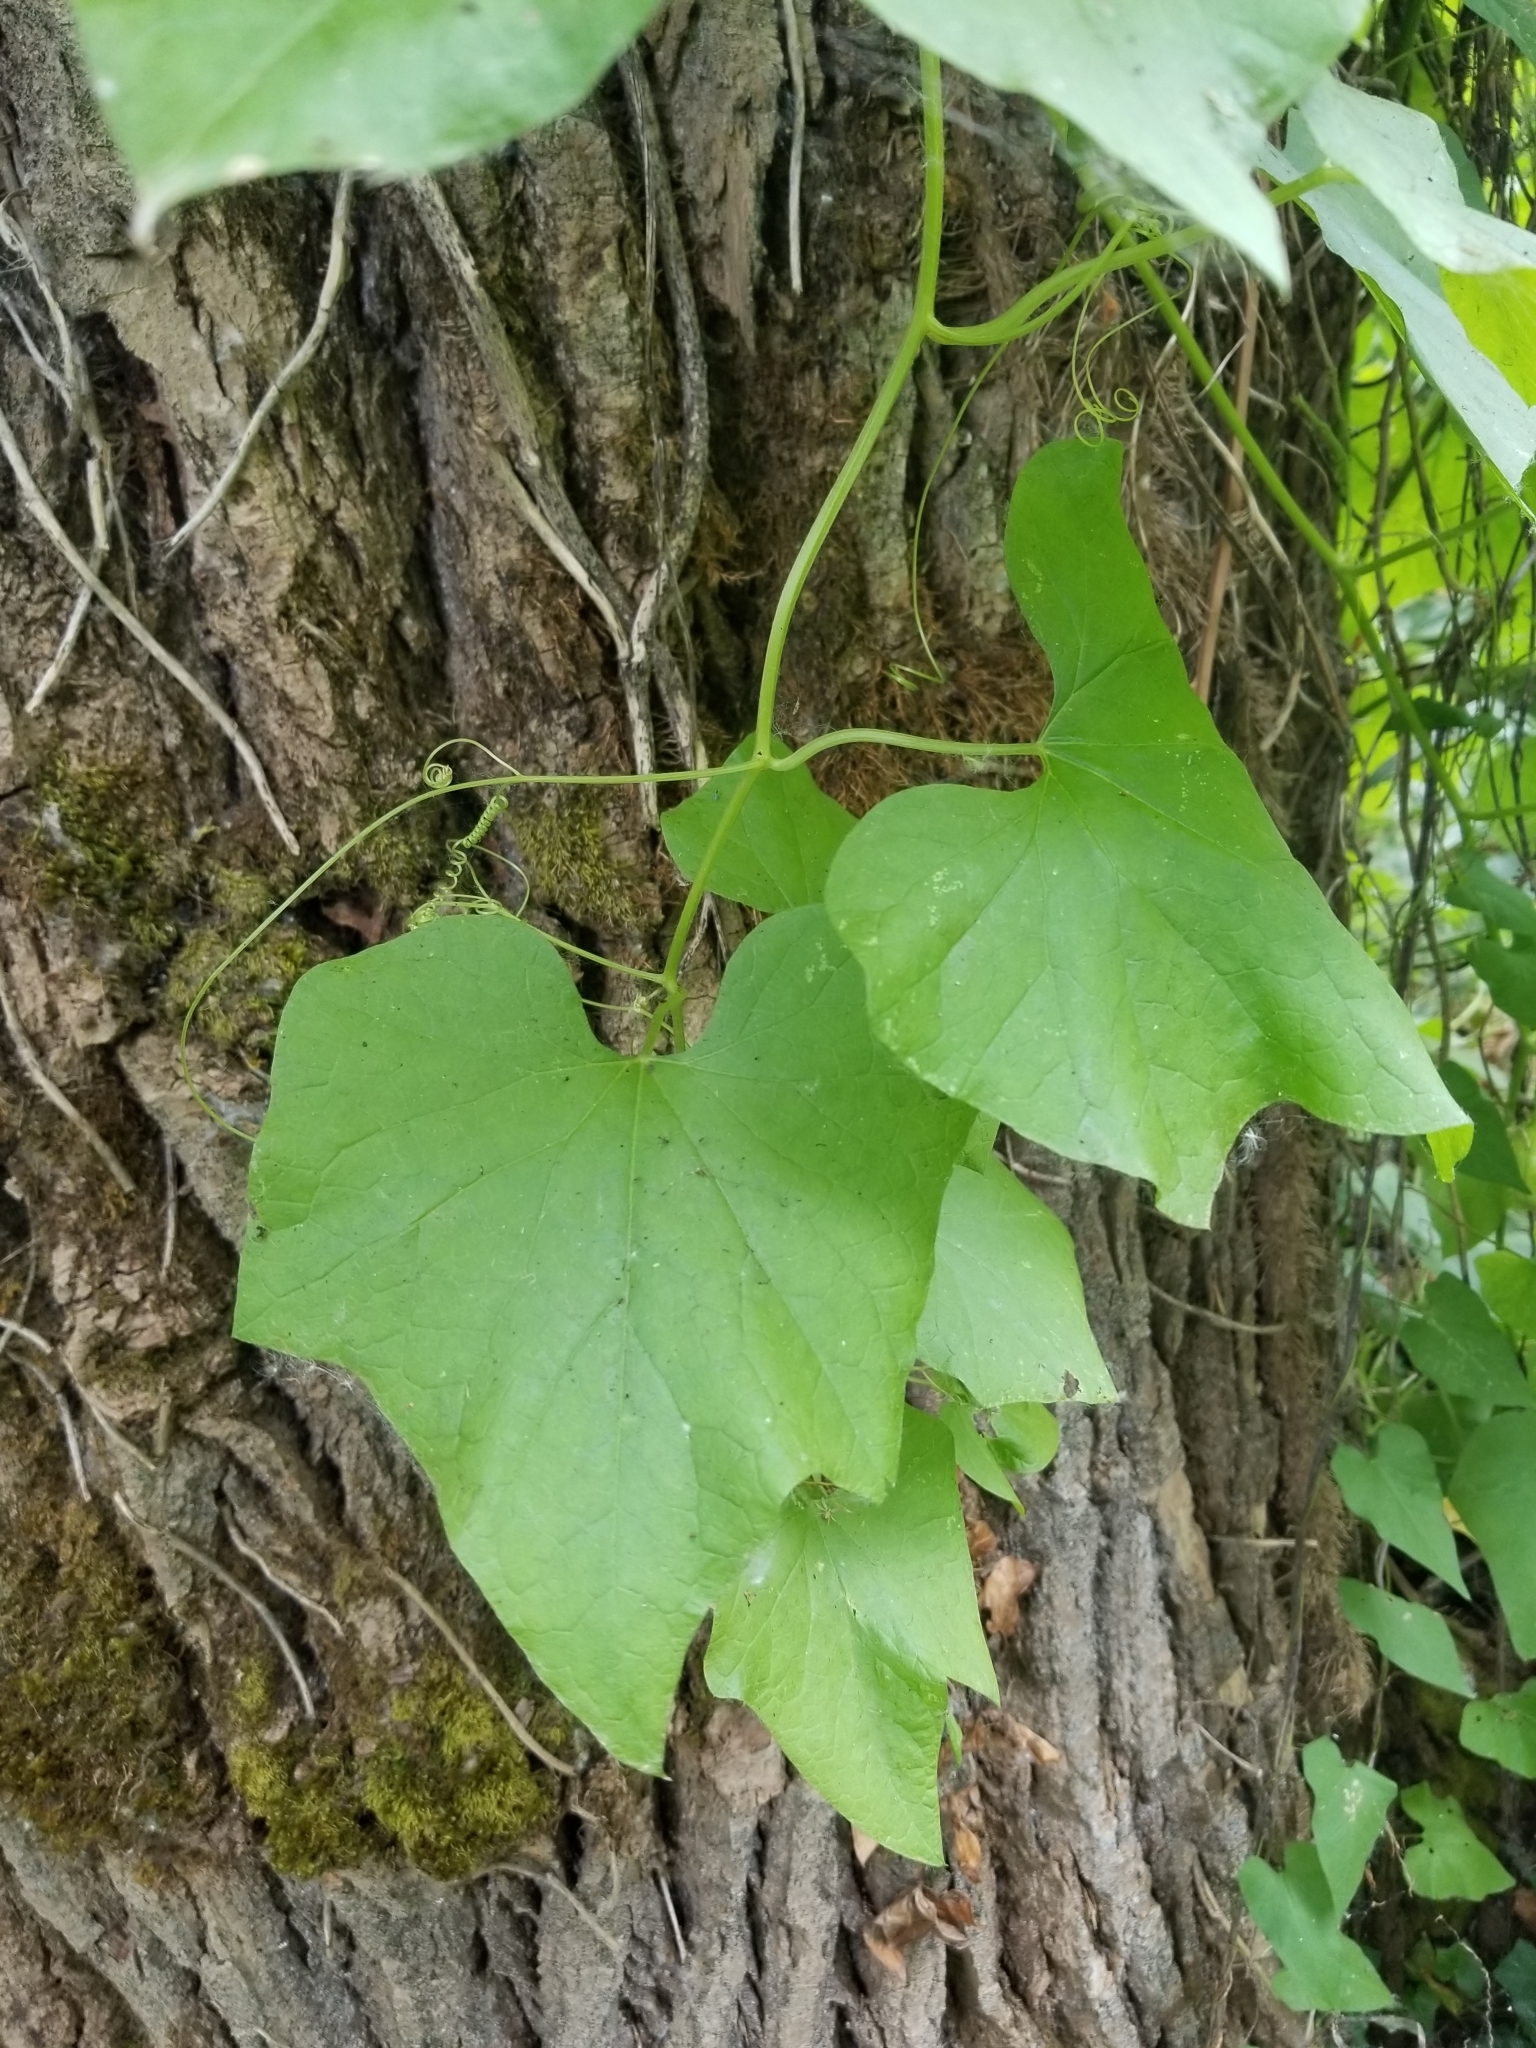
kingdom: Plantae
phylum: Tracheophyta
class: Magnoliopsida
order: Cucurbitales
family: Cucurbitaceae
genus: Marah
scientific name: Marah oregana
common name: Coastal manroot
